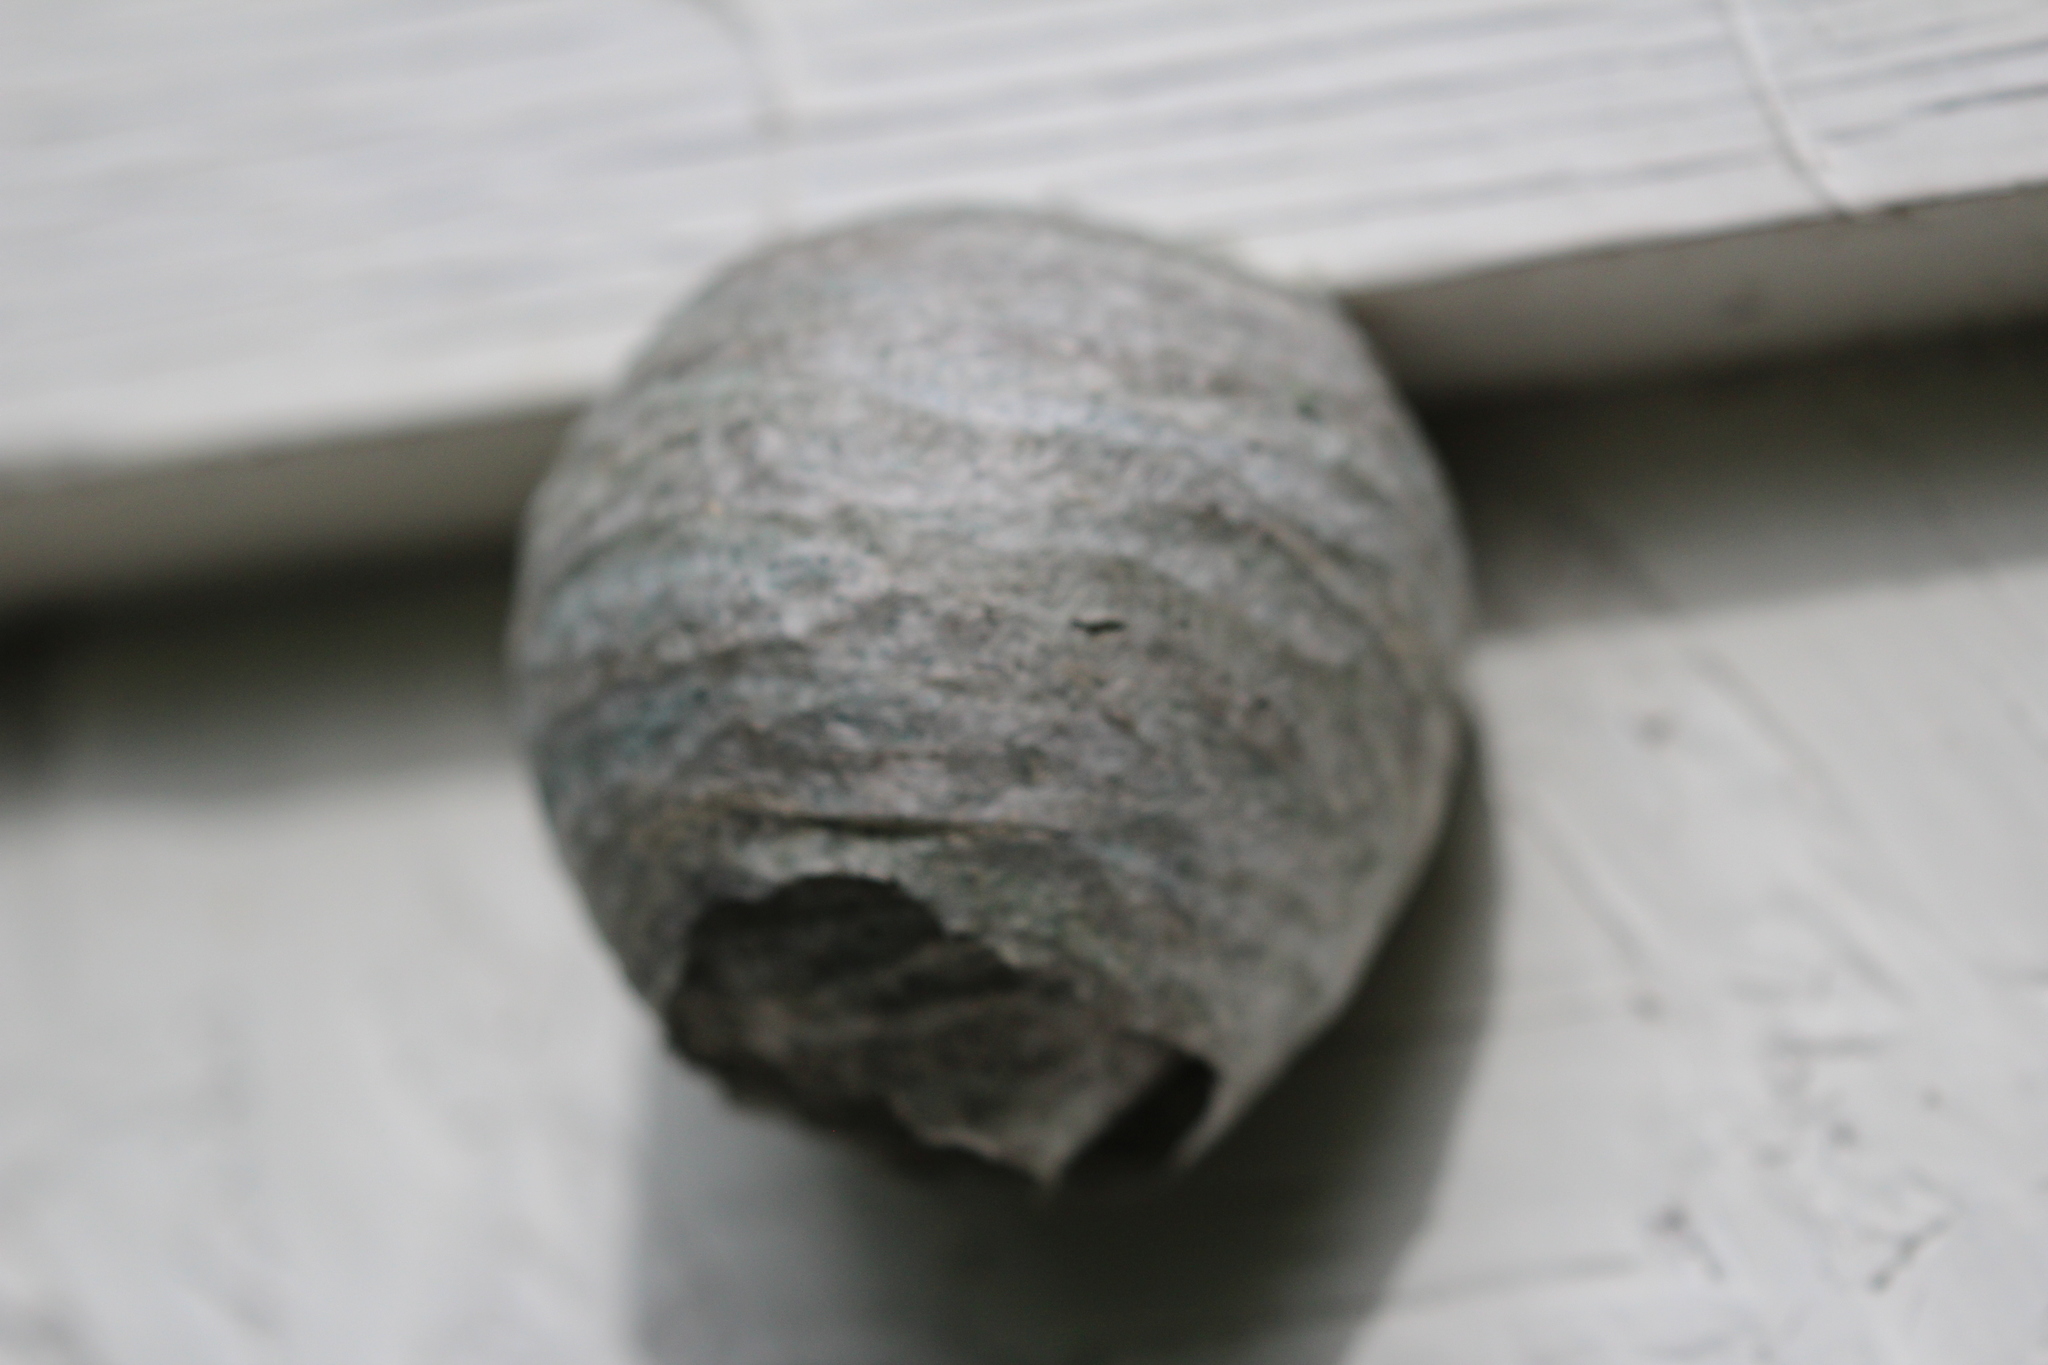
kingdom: Animalia
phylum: Arthropoda
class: Insecta
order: Hymenoptera
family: Vespidae
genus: Dolichovespula
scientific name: Dolichovespula arenaria
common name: Aerial yellowjacket
